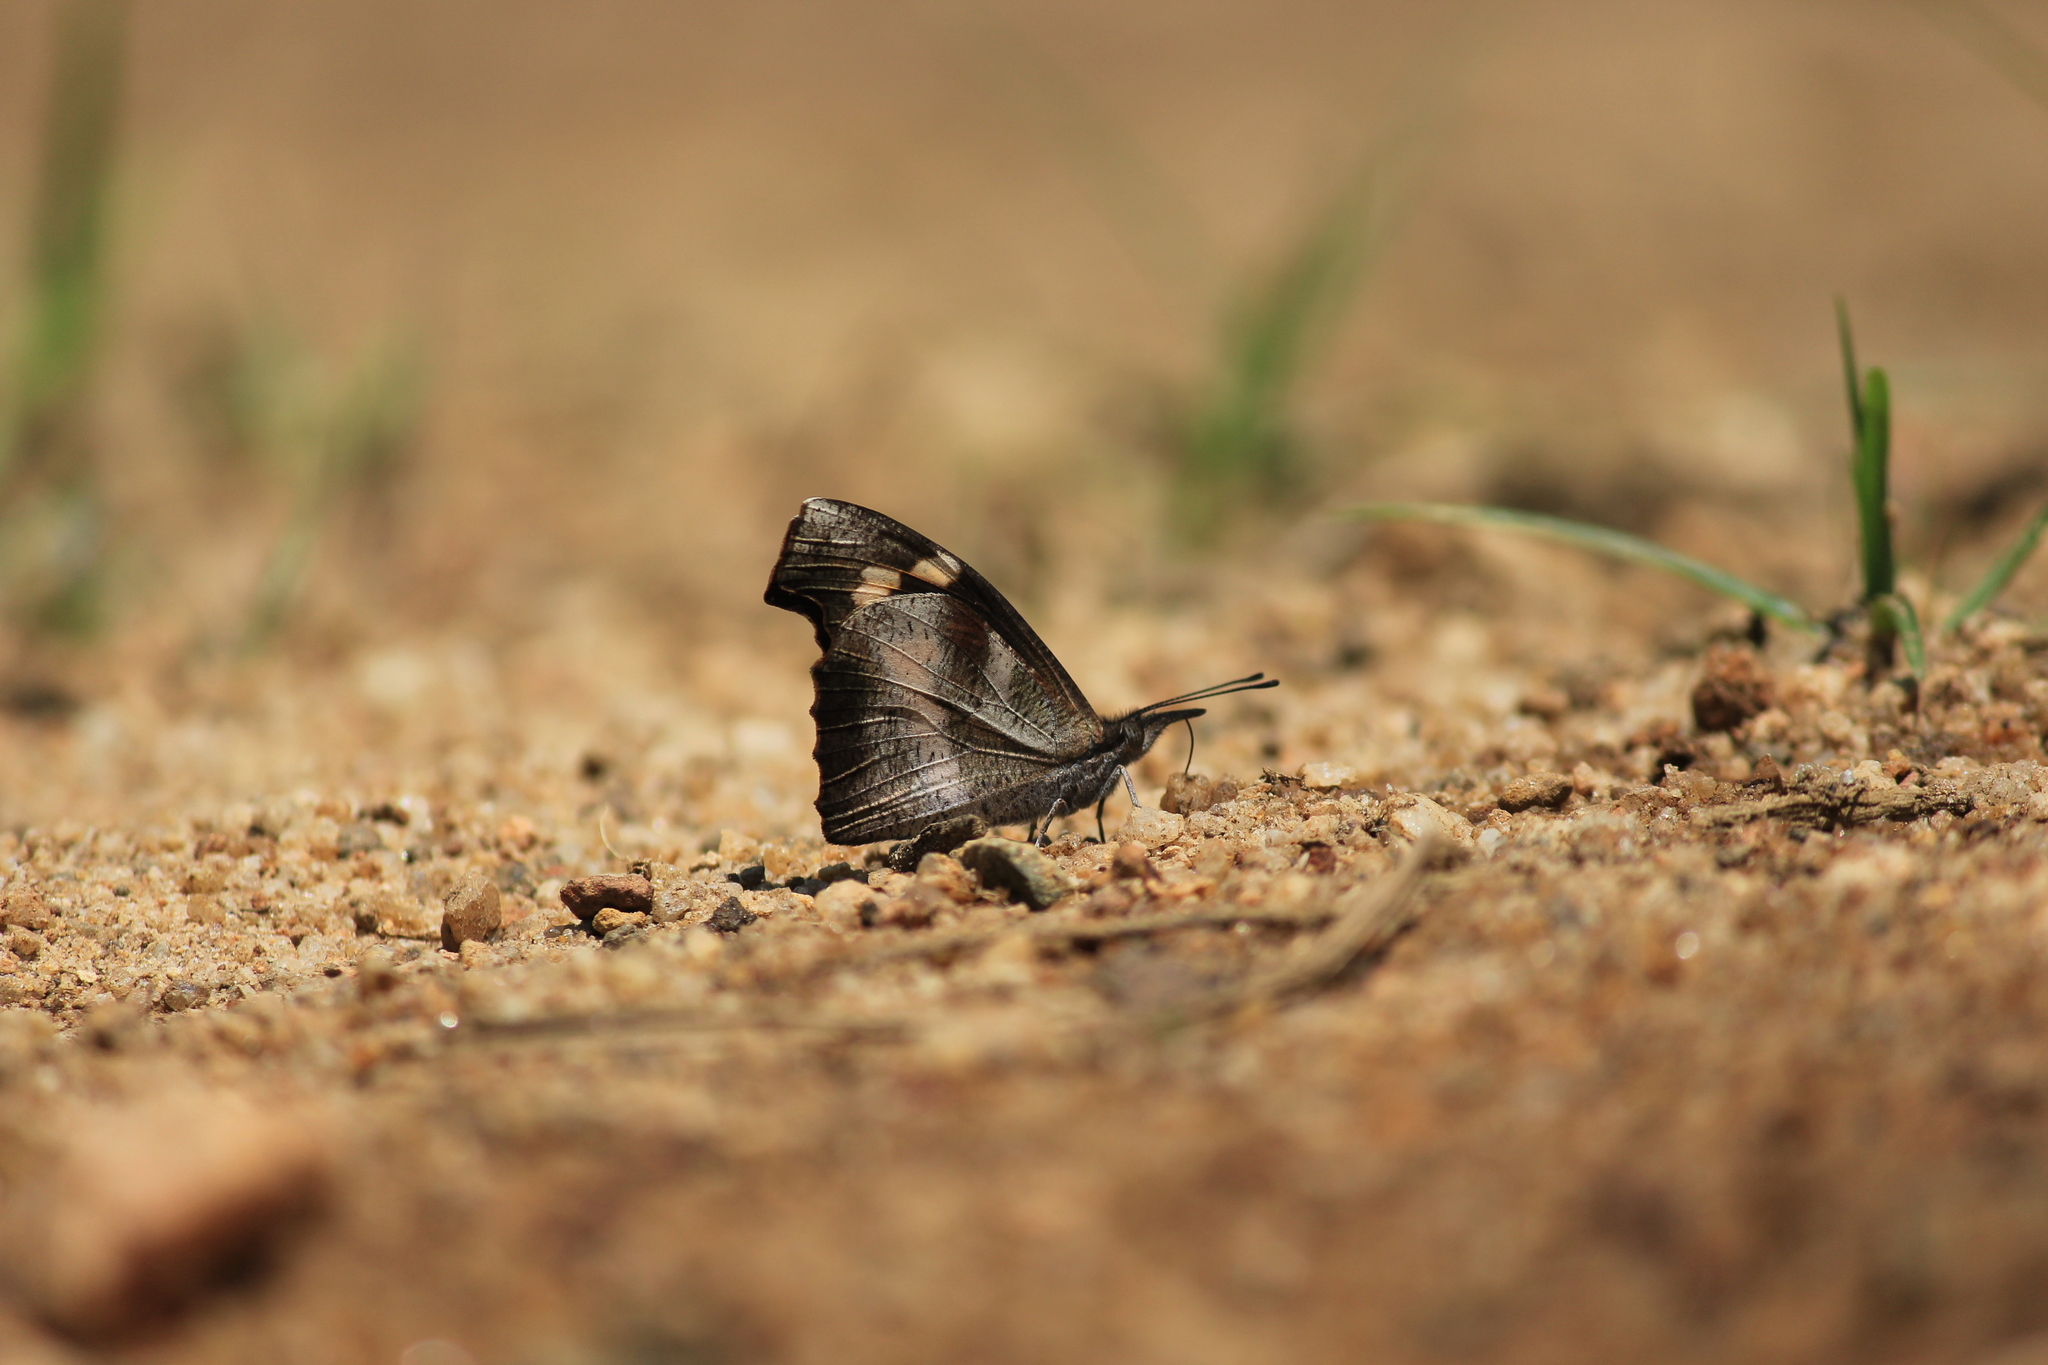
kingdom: Animalia
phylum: Arthropoda
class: Insecta
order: Lepidoptera
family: Nymphalidae
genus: Libythea
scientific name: Libythea myrrha
